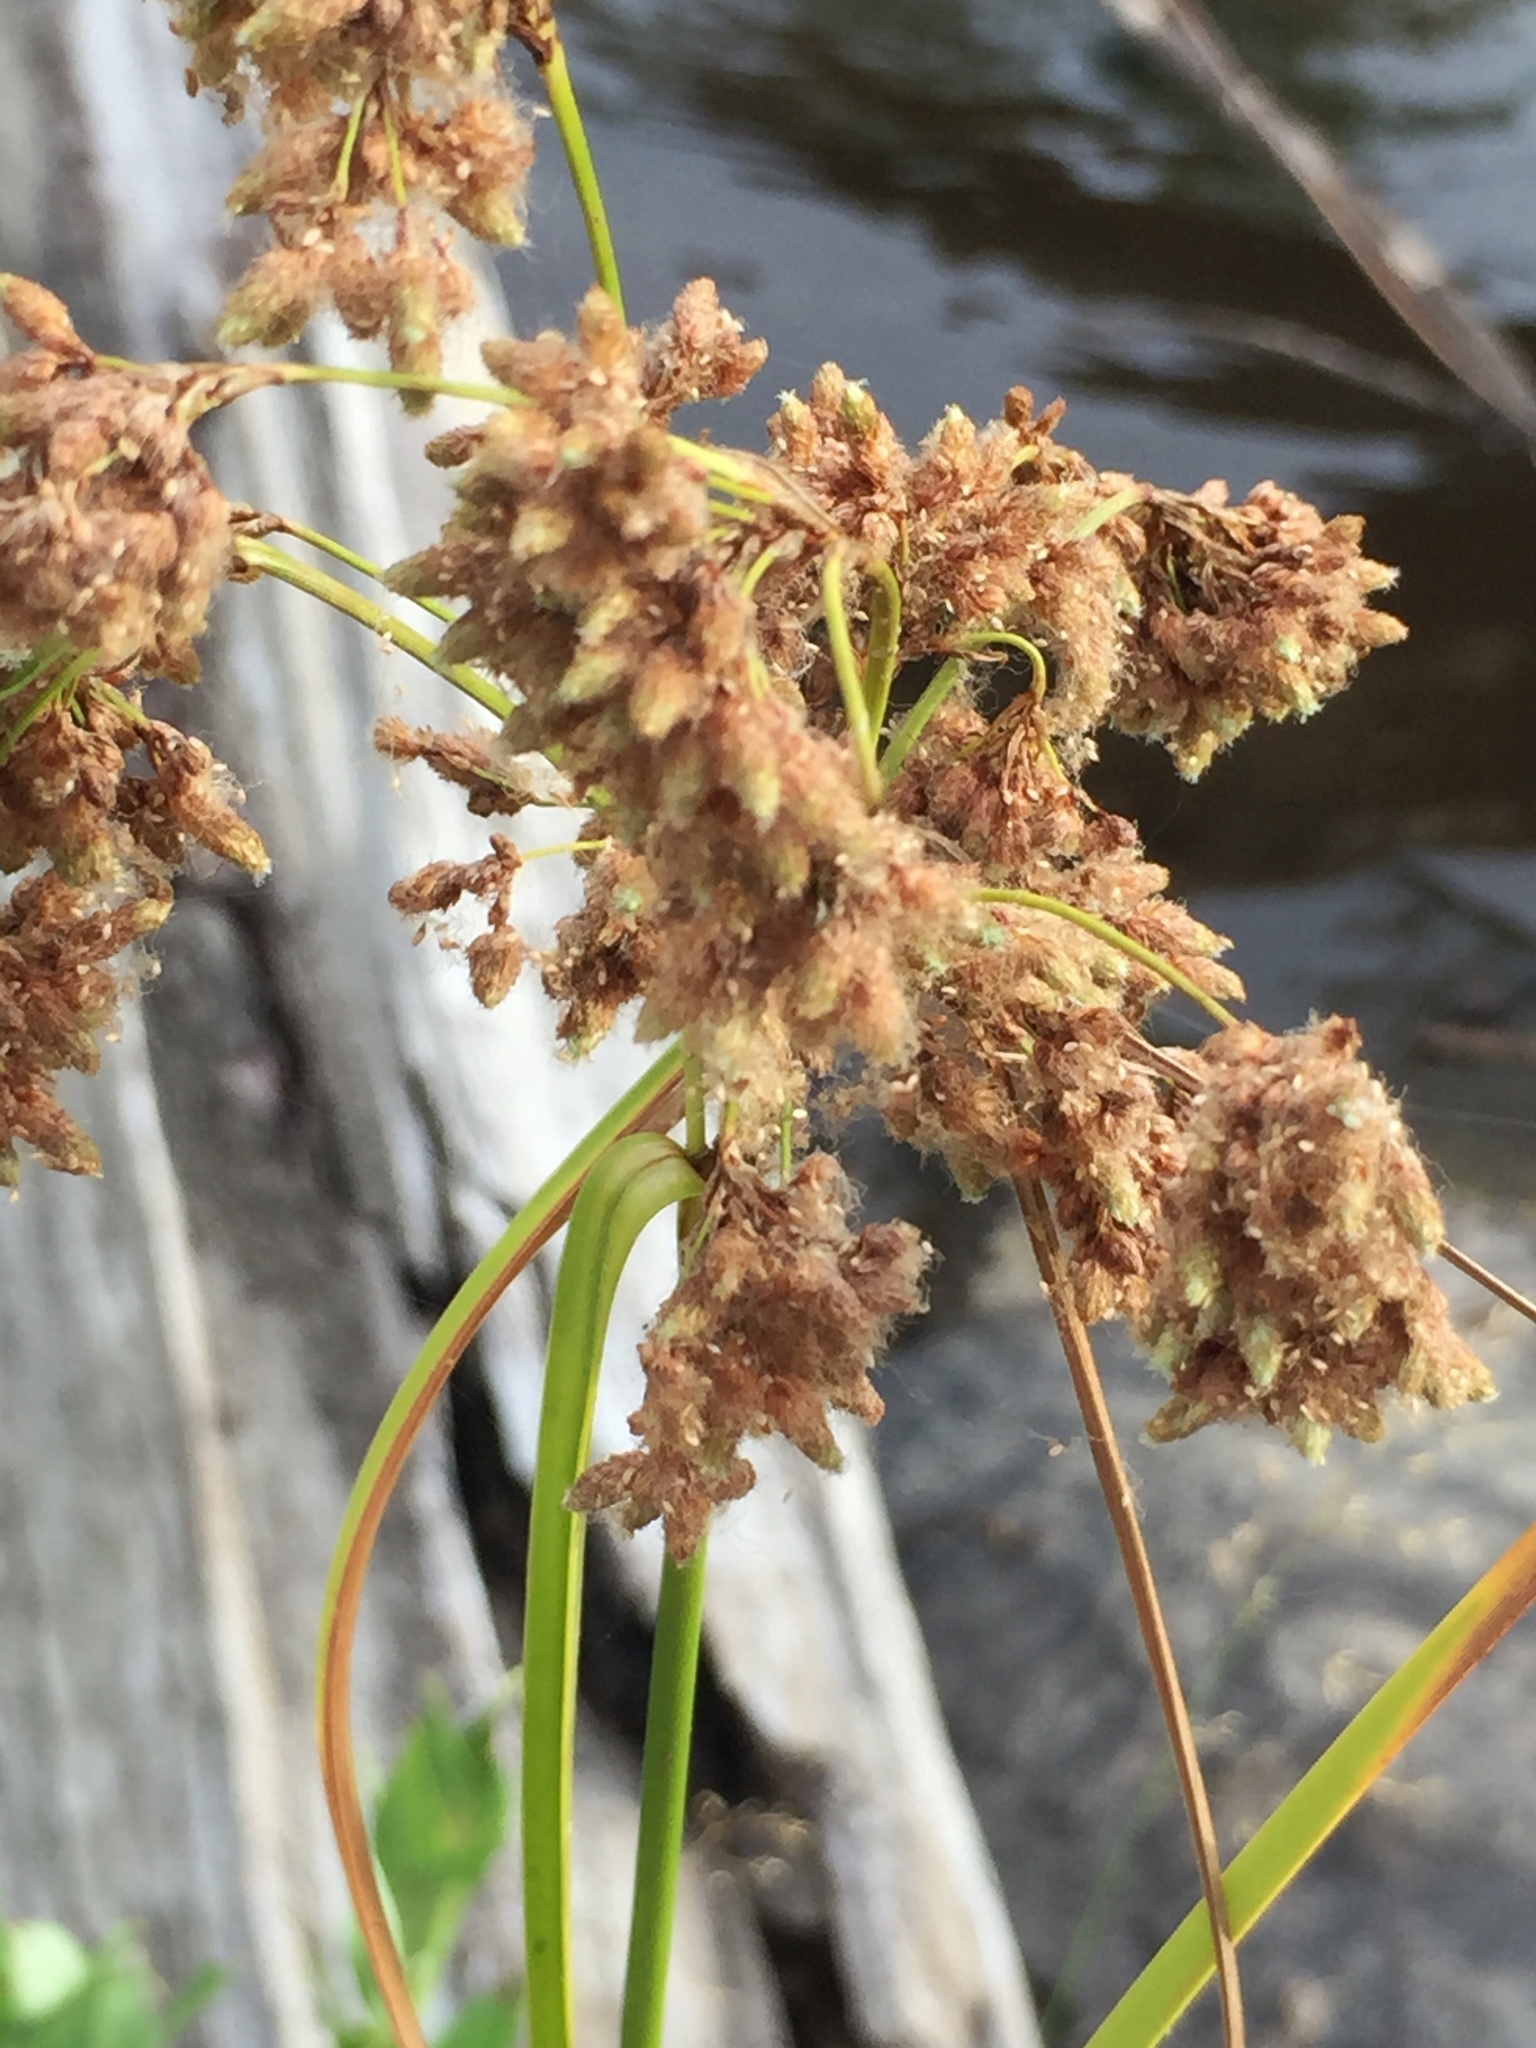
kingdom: Plantae
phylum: Tracheophyta
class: Liliopsida
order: Poales
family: Cyperaceae
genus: Scirpus
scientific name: Scirpus cyperinus
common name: Black-sheathed bulrush
